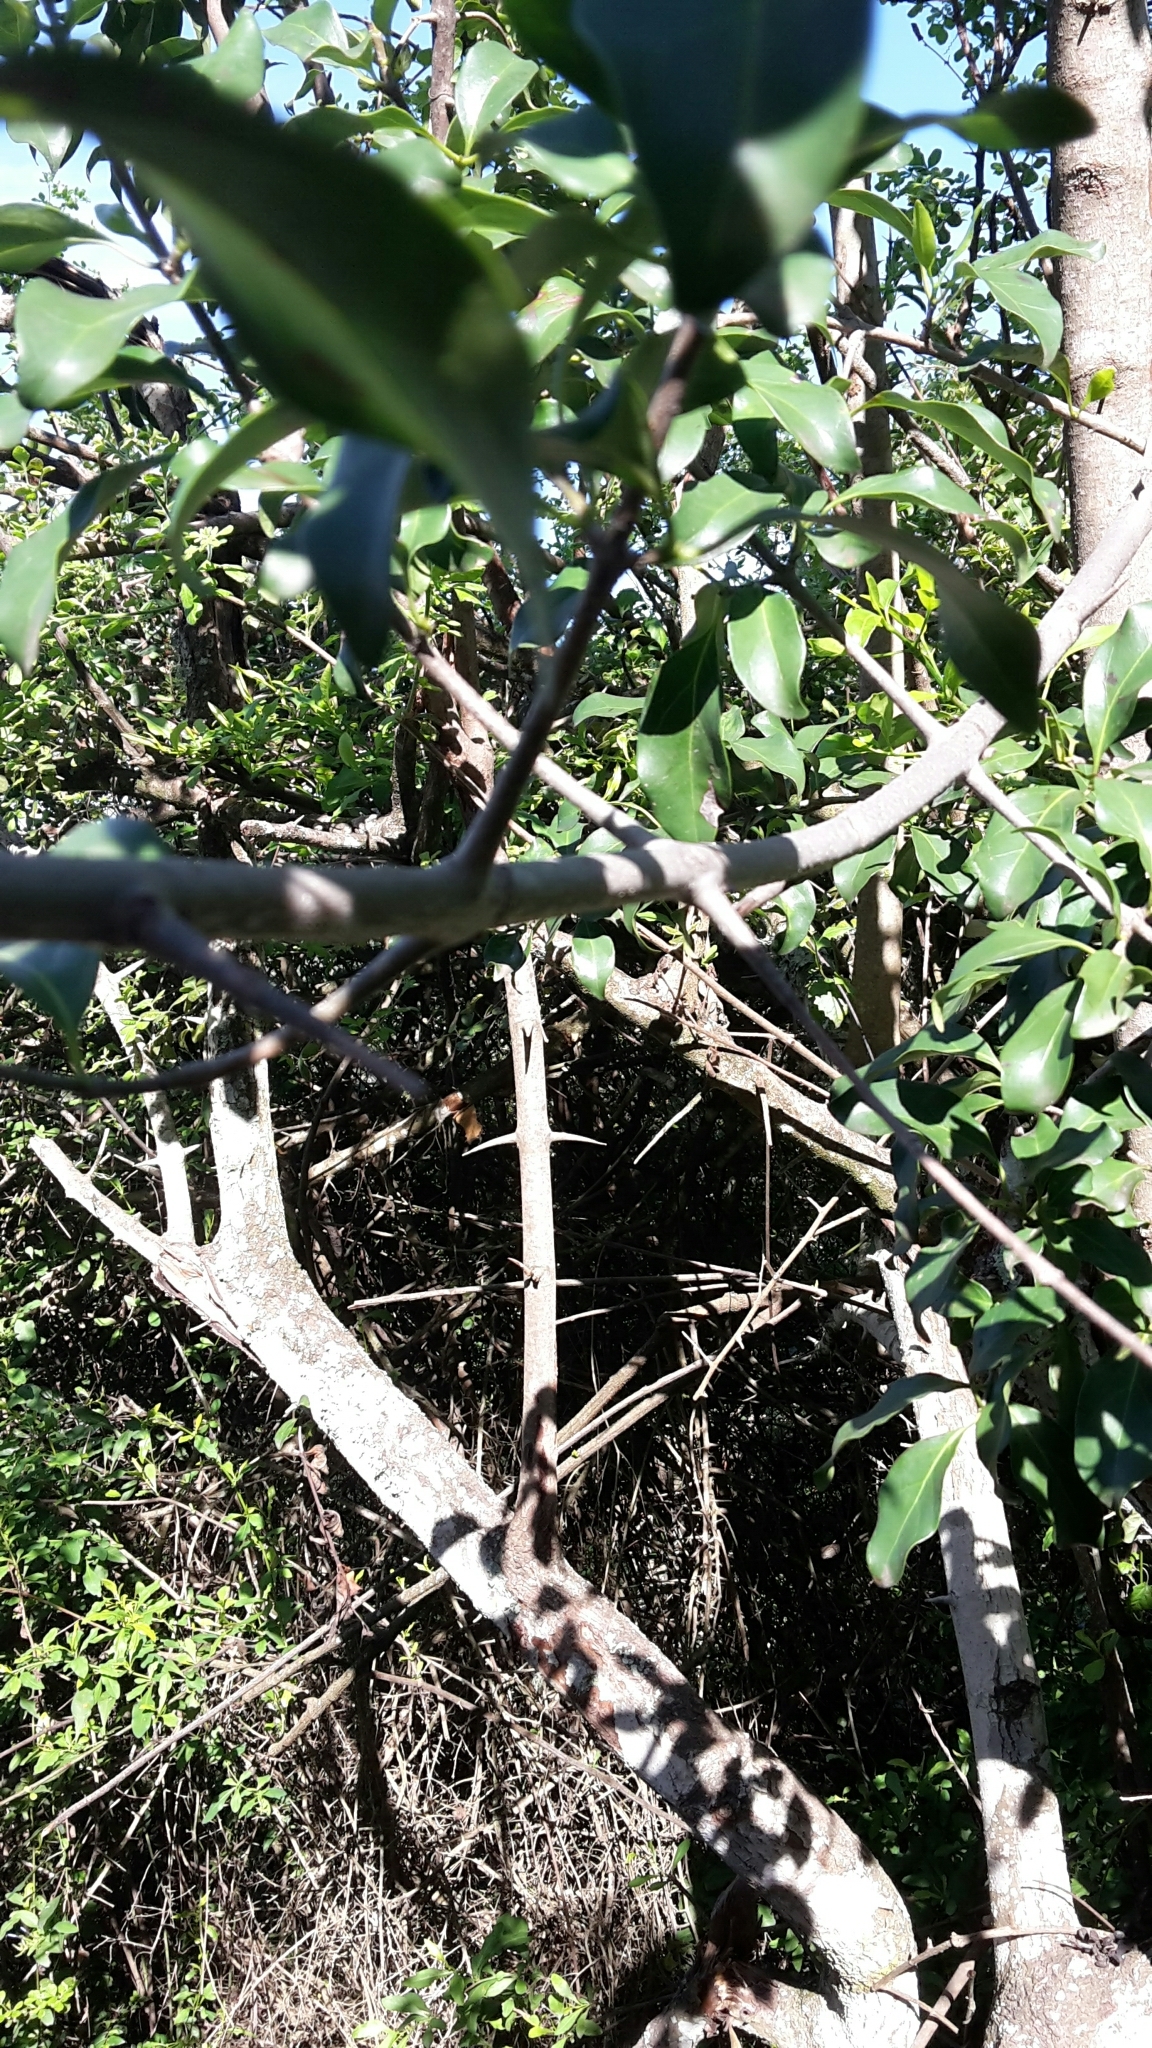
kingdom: Plantae
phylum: Tracheophyta
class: Magnoliopsida
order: Gentianales
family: Rubiaceae
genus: Canthium
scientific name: Canthium inerme
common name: Unarmed turkey-berry
